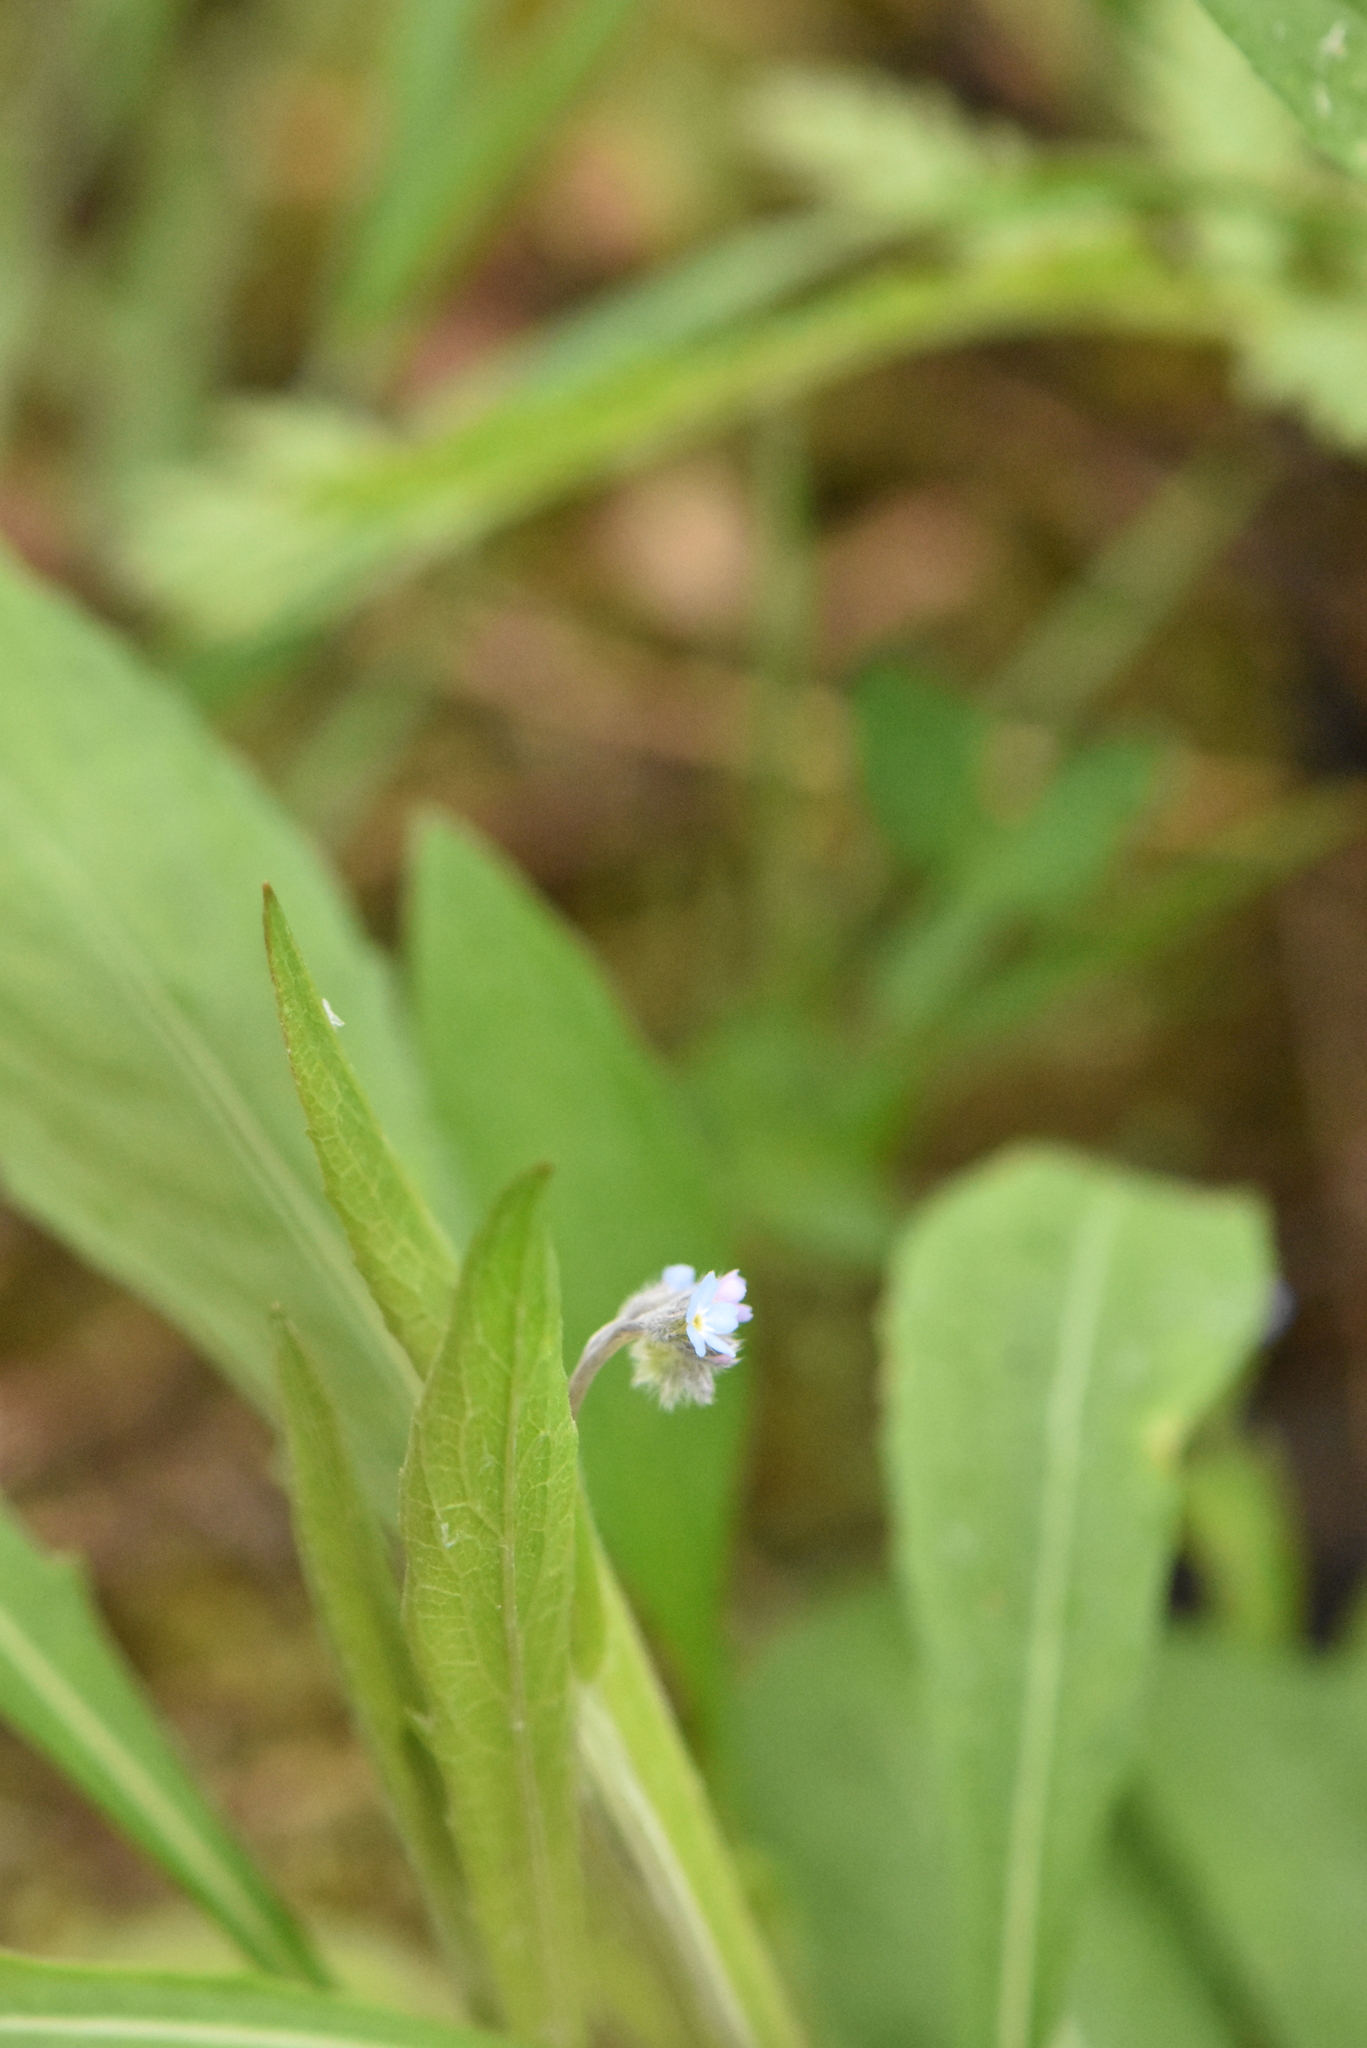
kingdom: Plantae
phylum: Tracheophyta
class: Magnoliopsida
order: Boraginales
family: Boraginaceae
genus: Myosotis
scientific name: Myosotis arvensis
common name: Field forget-me-not
